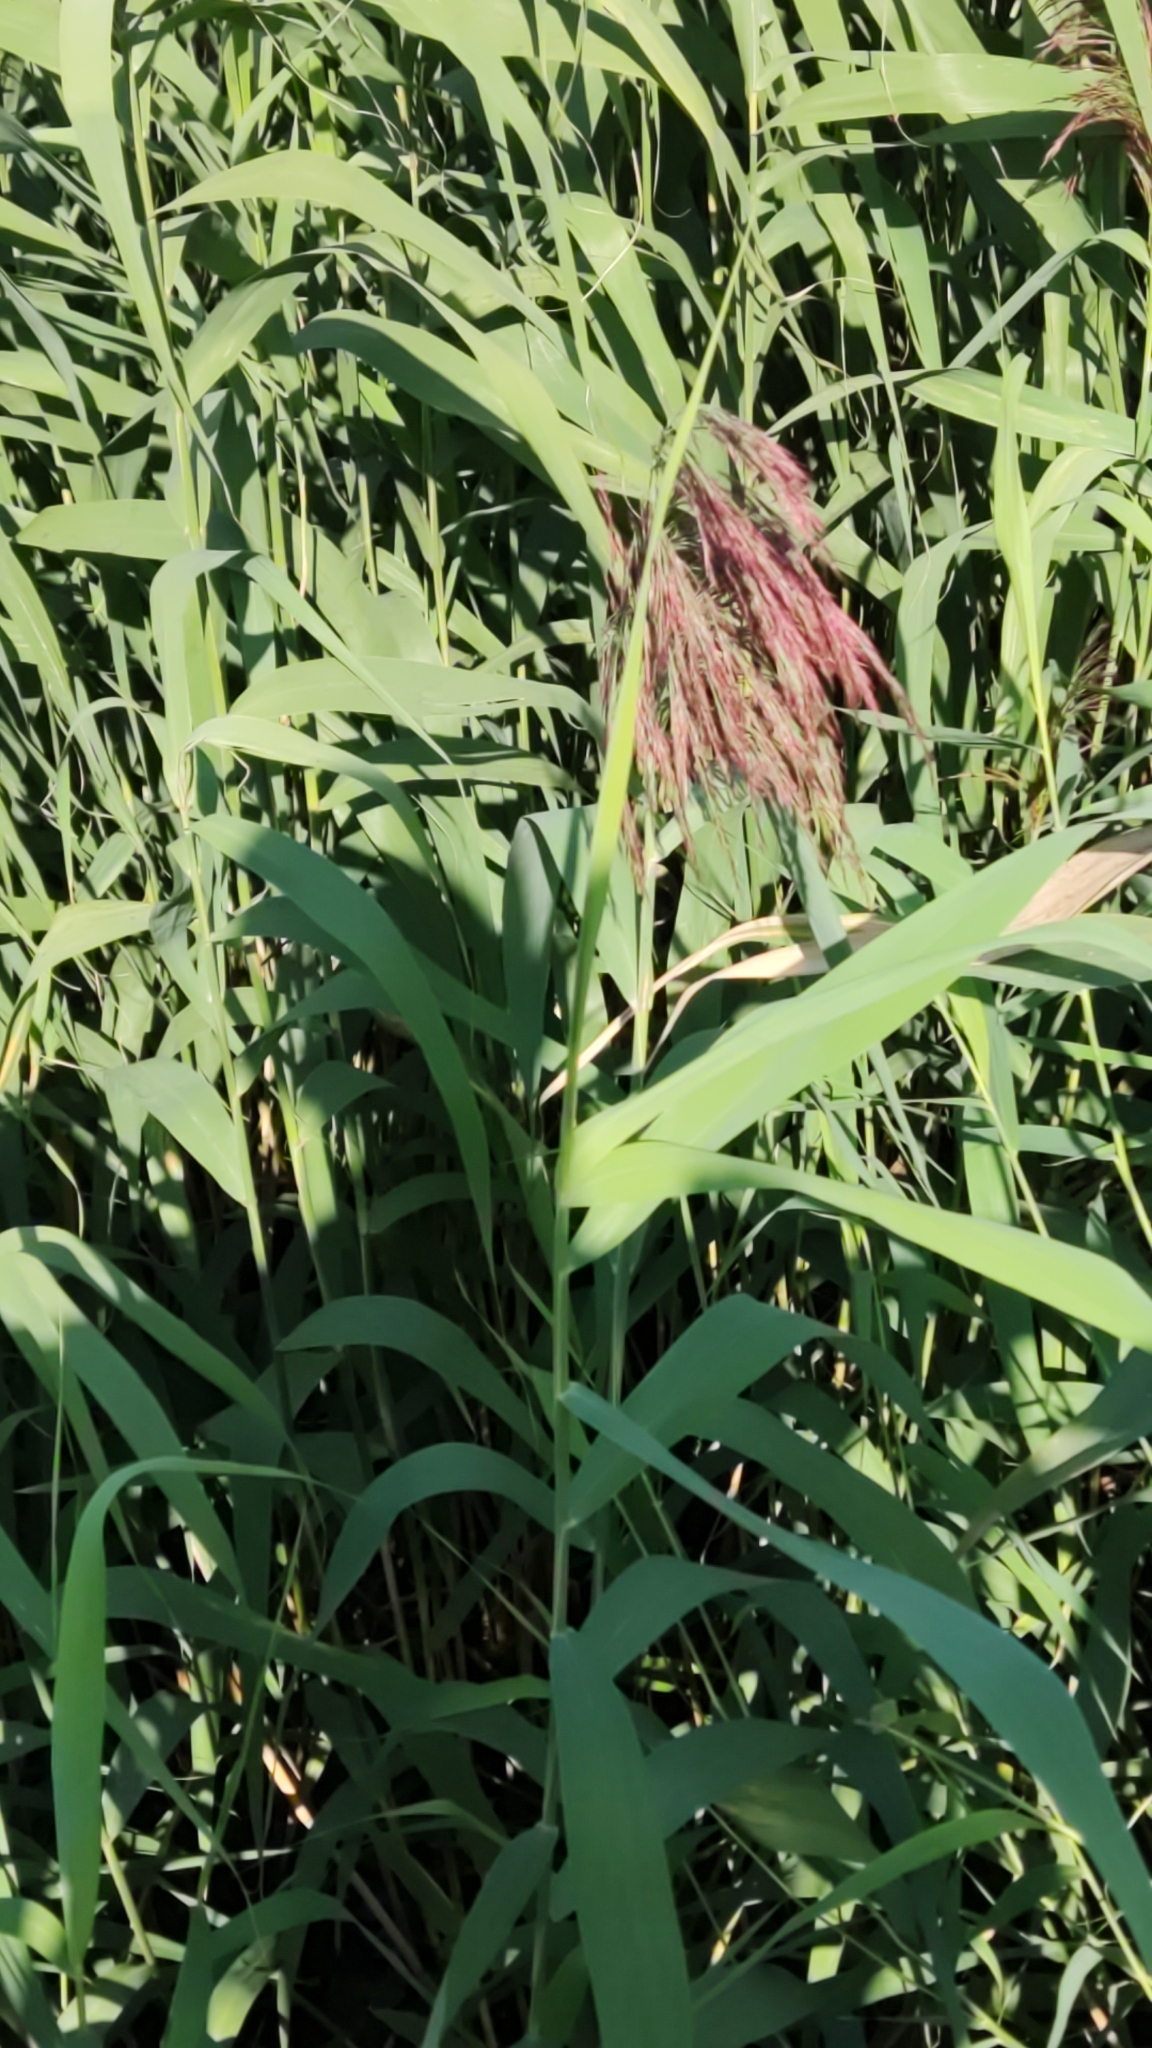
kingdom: Plantae
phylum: Tracheophyta
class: Liliopsida
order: Poales
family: Poaceae
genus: Phragmites
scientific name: Phragmites australis
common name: Common reed
